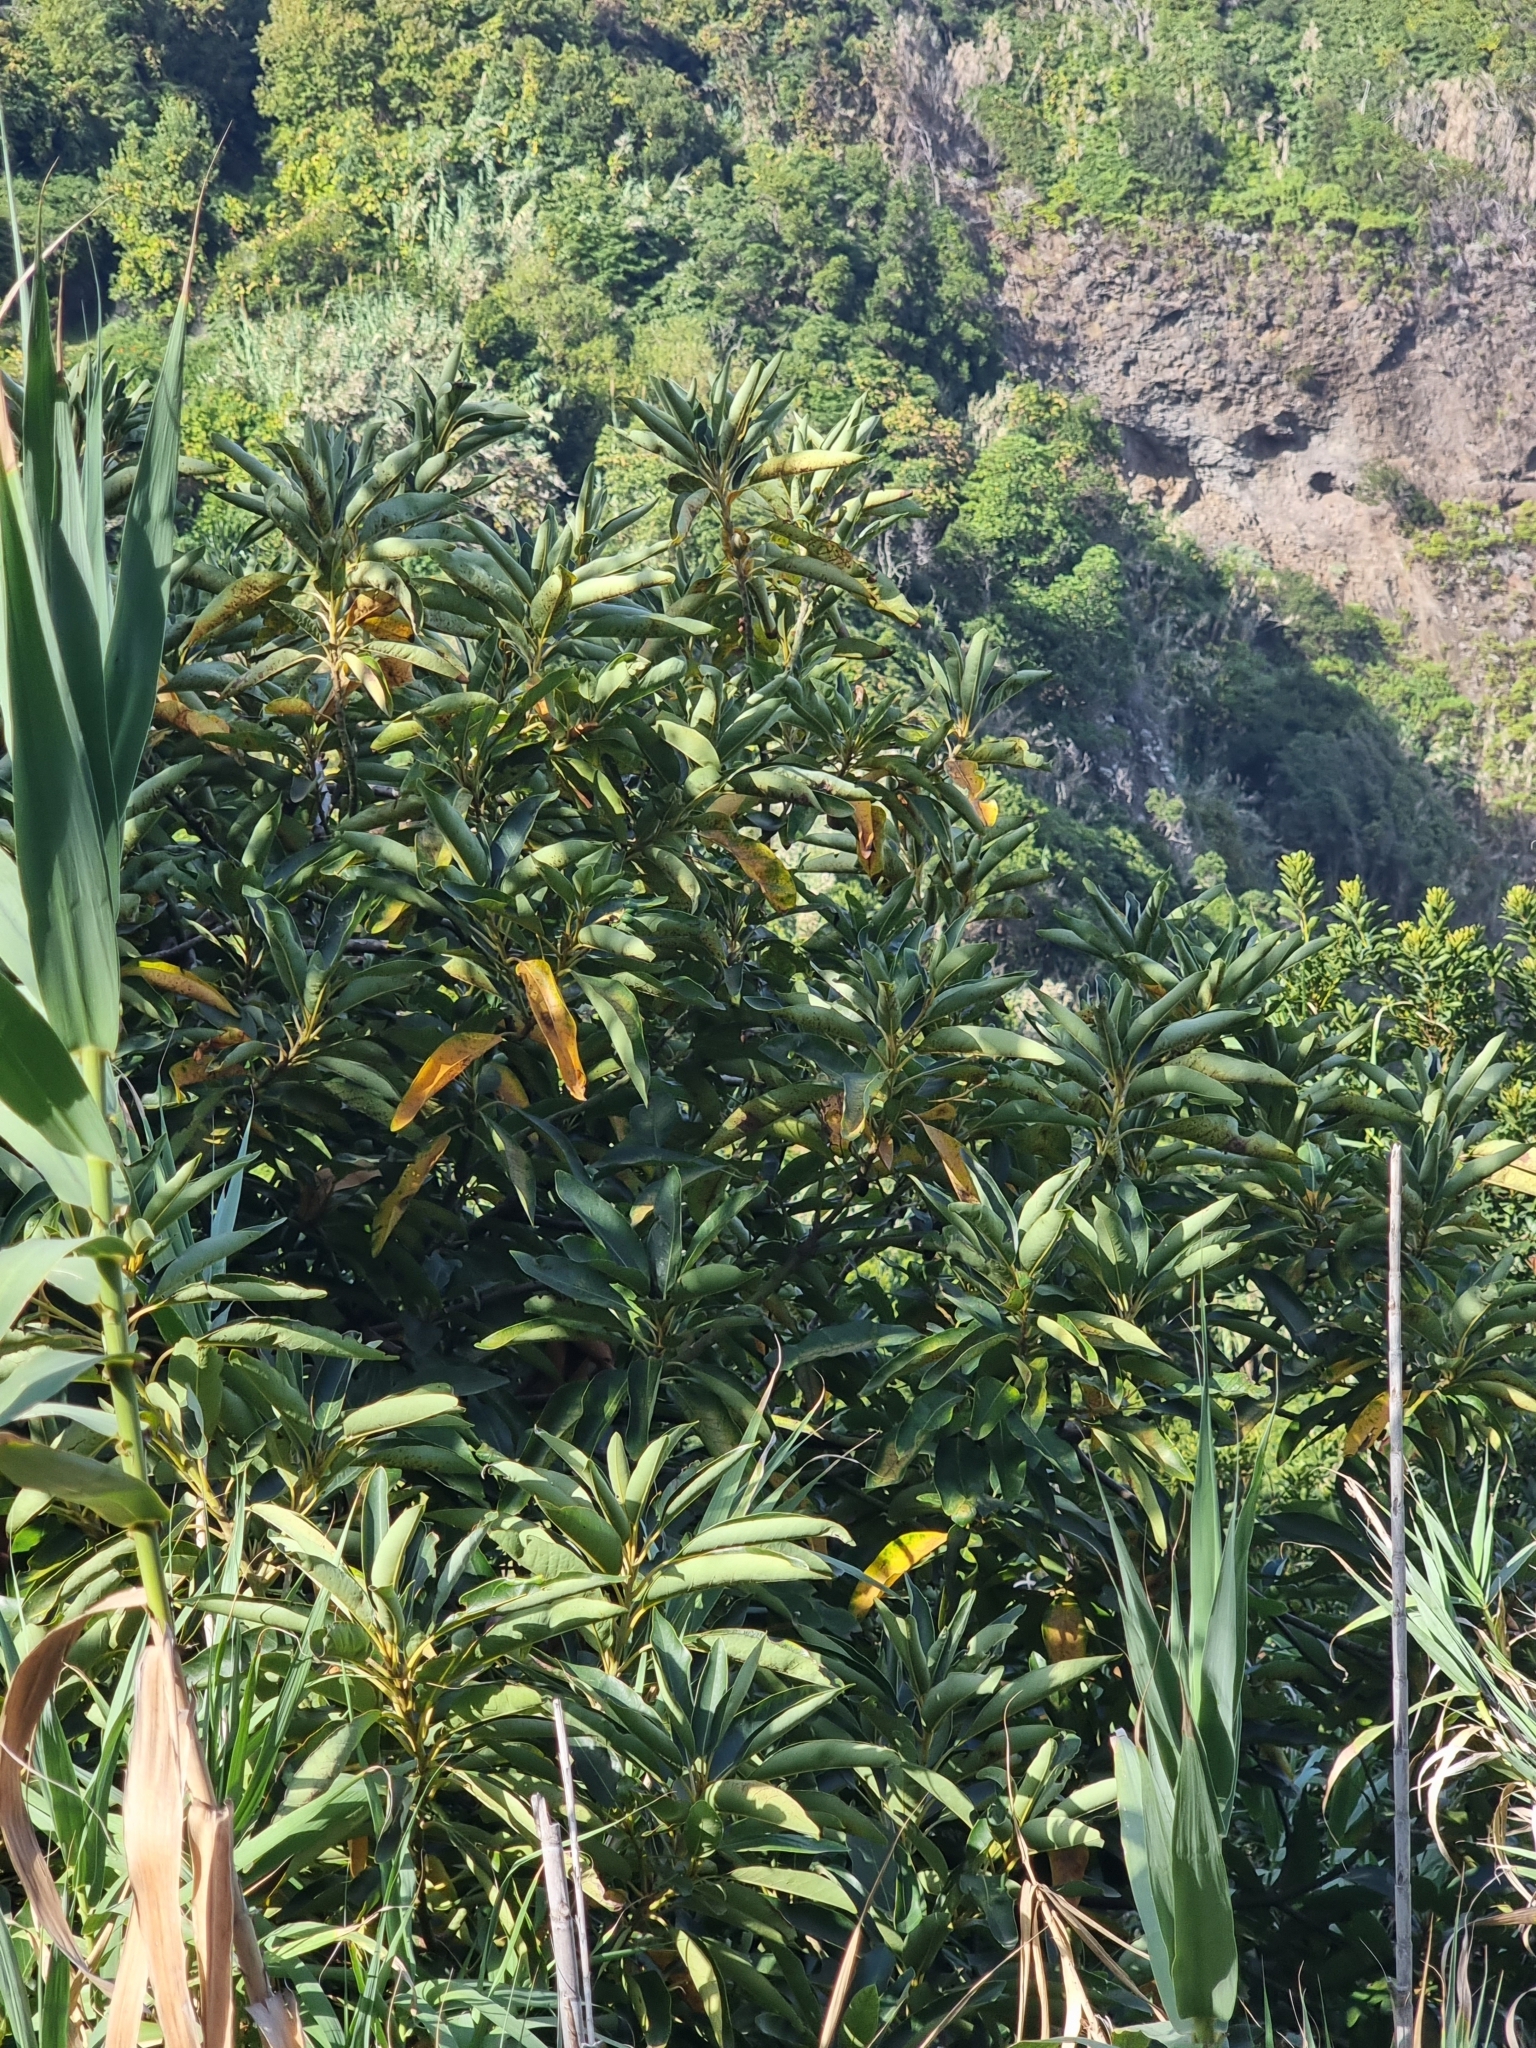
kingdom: Plantae
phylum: Tracheophyta
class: Magnoliopsida
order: Laurales
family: Lauraceae
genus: Persea
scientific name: Persea indica
